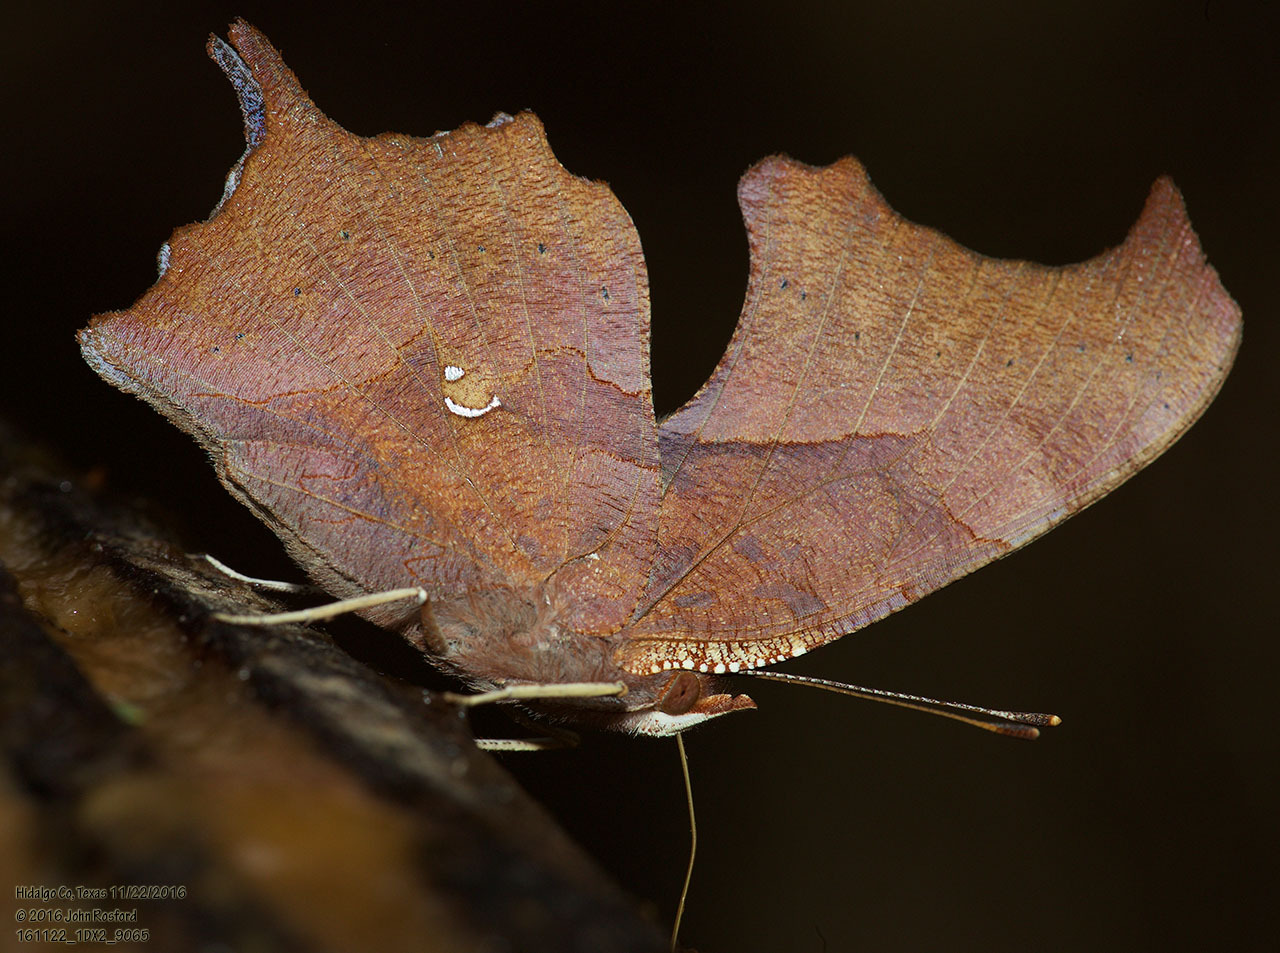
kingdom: Animalia
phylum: Arthropoda
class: Insecta
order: Lepidoptera
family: Nymphalidae
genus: Polygonia
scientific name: Polygonia interrogationis
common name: Question mark
